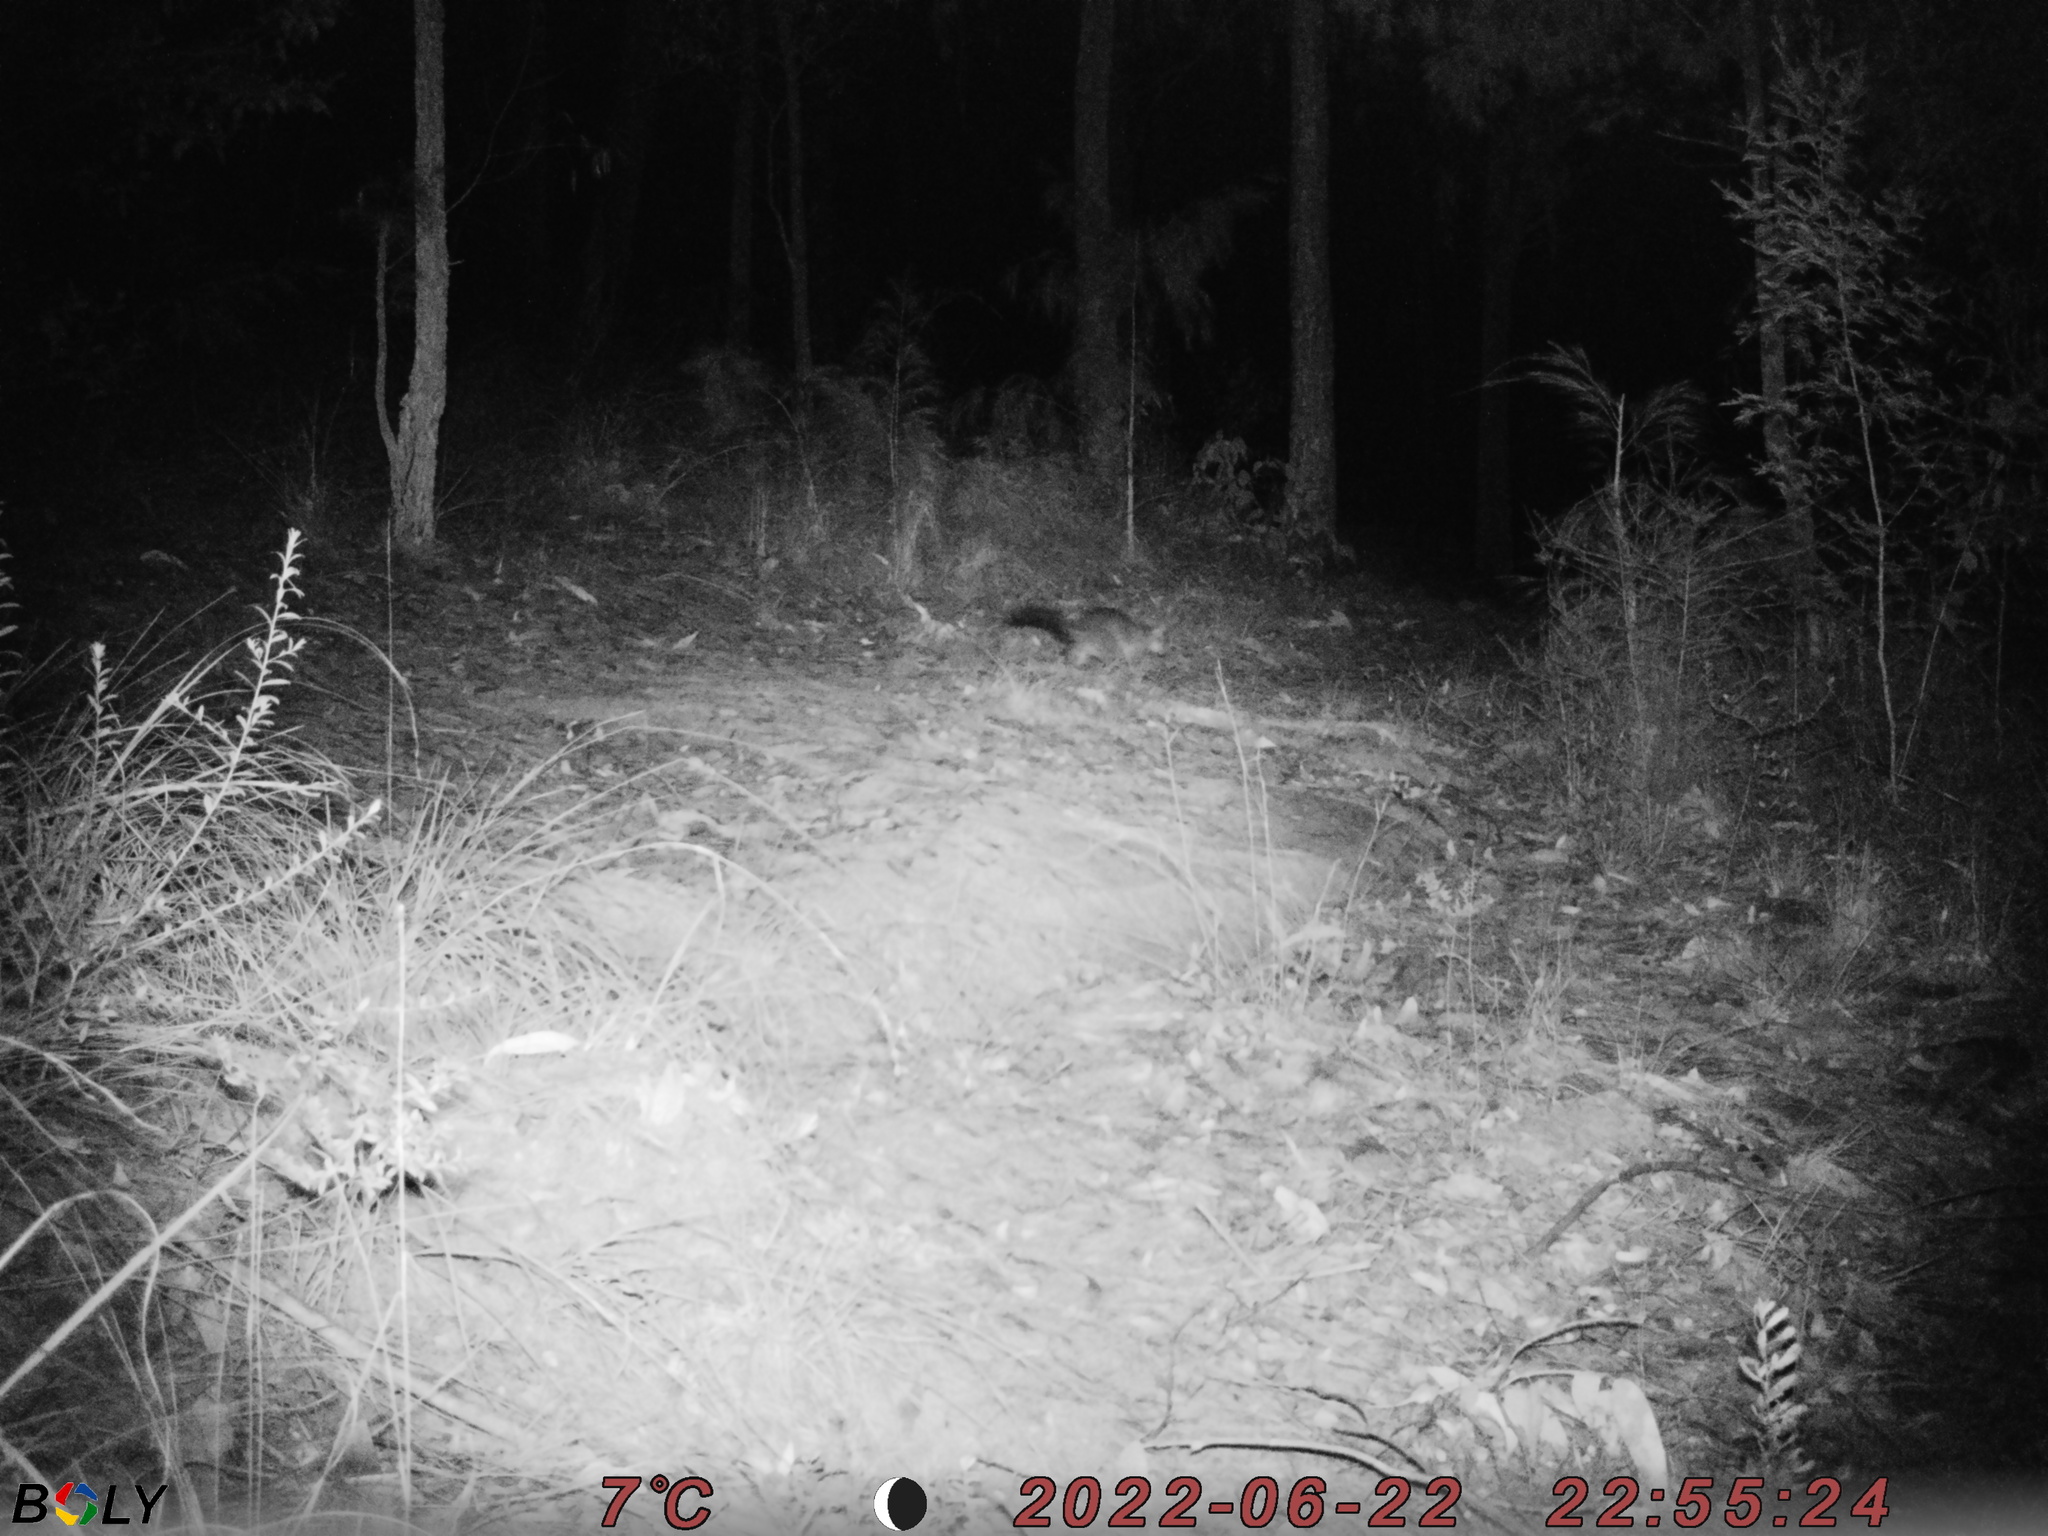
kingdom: Animalia
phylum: Chordata
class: Mammalia
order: Diprotodontia
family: Phalangeridae
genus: Trichosurus
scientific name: Trichosurus vulpecula
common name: Common brushtail
